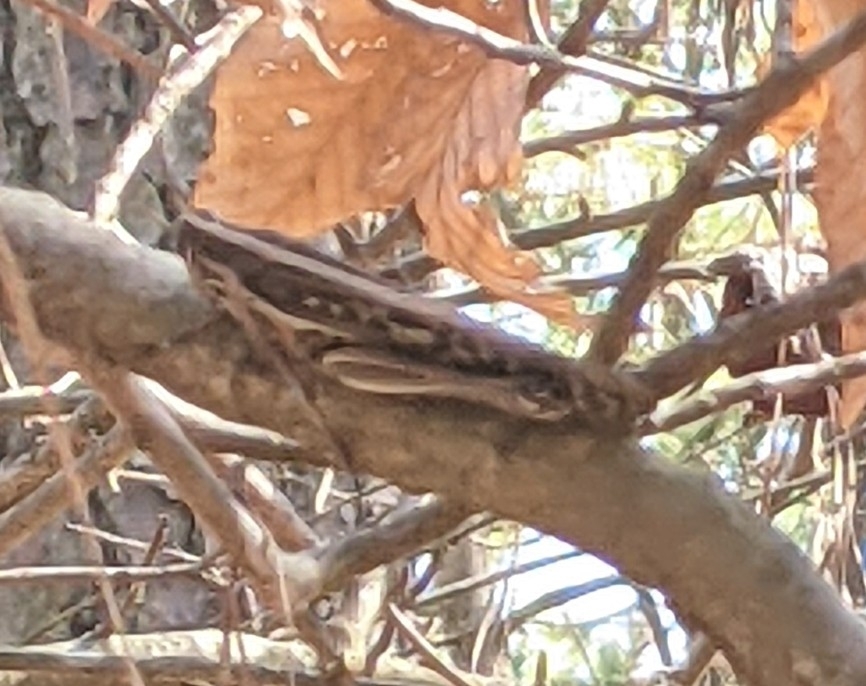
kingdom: Animalia
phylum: Arthropoda
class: Insecta
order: Orthoptera
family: Acrididae
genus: Schistocerca
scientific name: Schistocerca americana
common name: American bird locust
